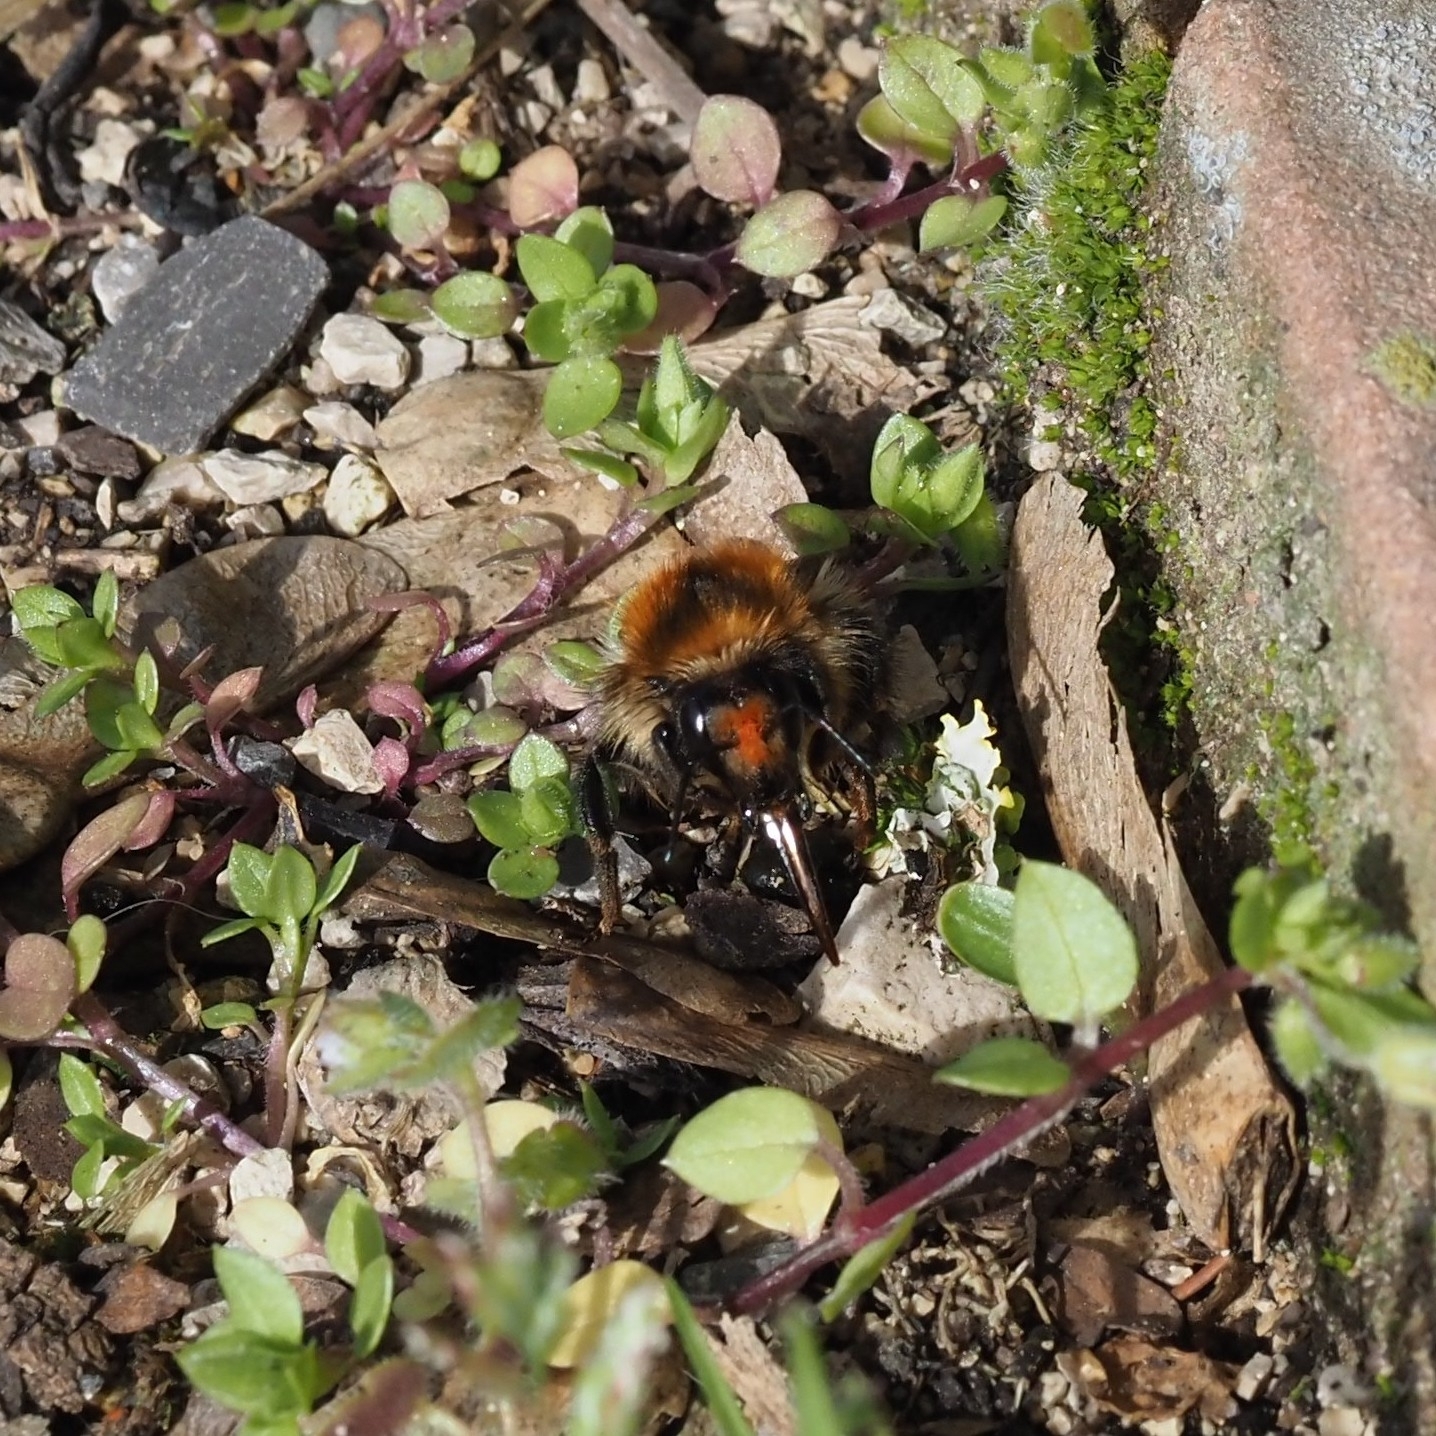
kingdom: Animalia
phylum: Arthropoda
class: Insecta
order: Hymenoptera
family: Apidae
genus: Bombus
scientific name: Bombus pascuorum
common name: Common carder bee
